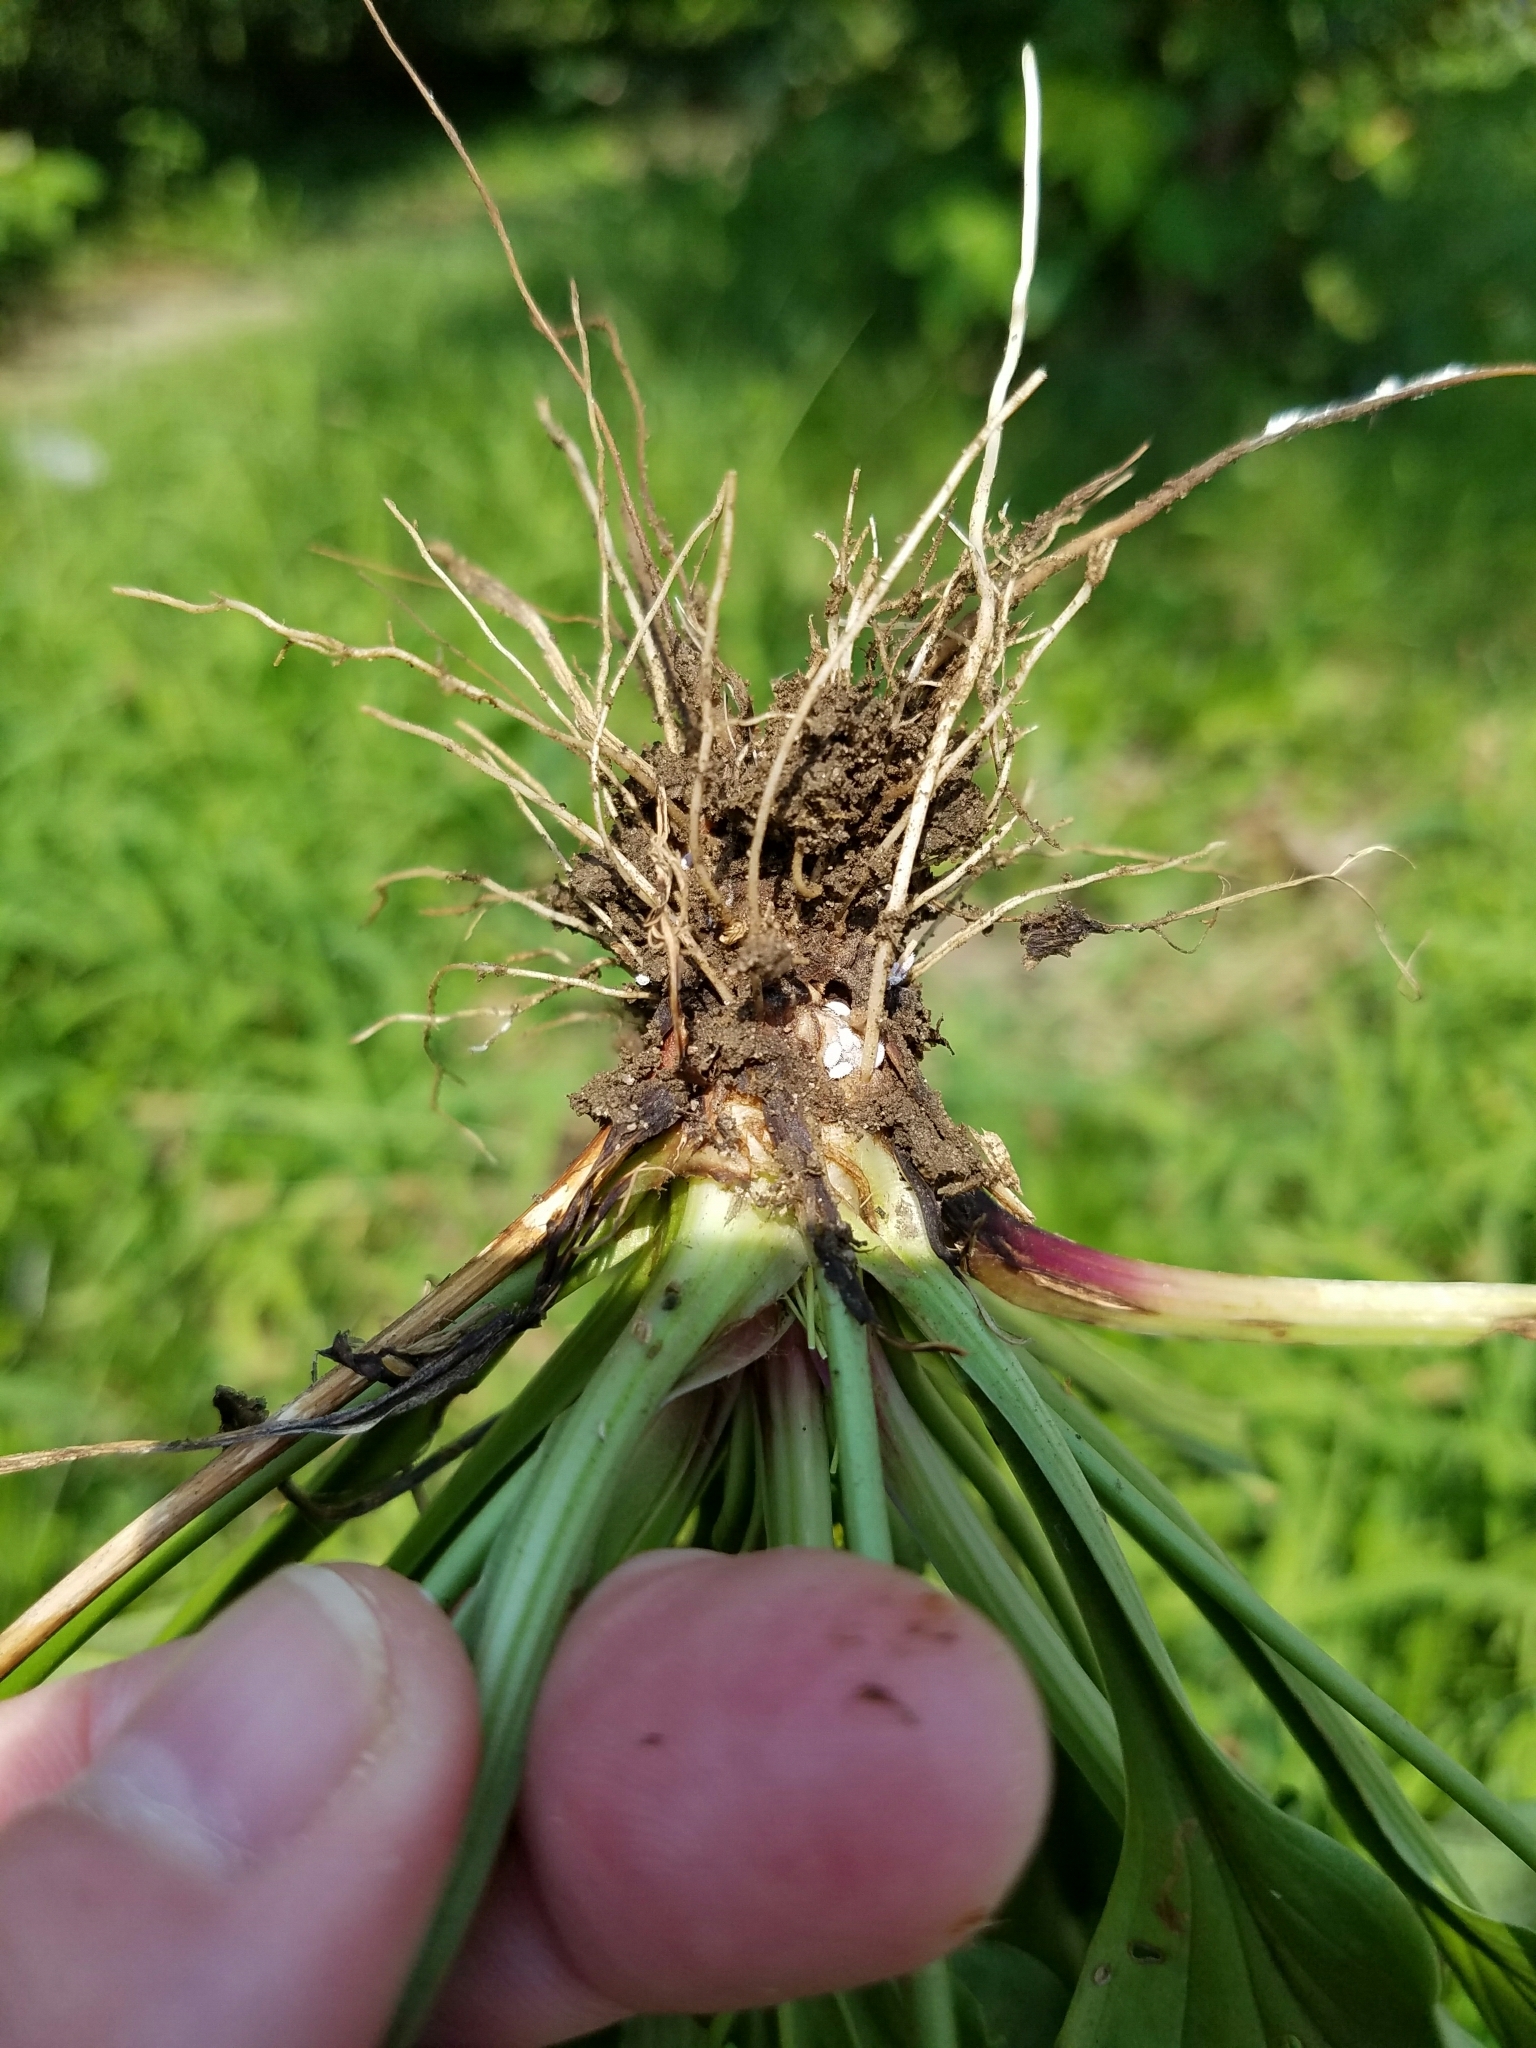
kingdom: Plantae
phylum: Tracheophyta
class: Magnoliopsida
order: Lamiales
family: Plantaginaceae
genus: Plantago
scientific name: Plantago rugelii
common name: American plantain
